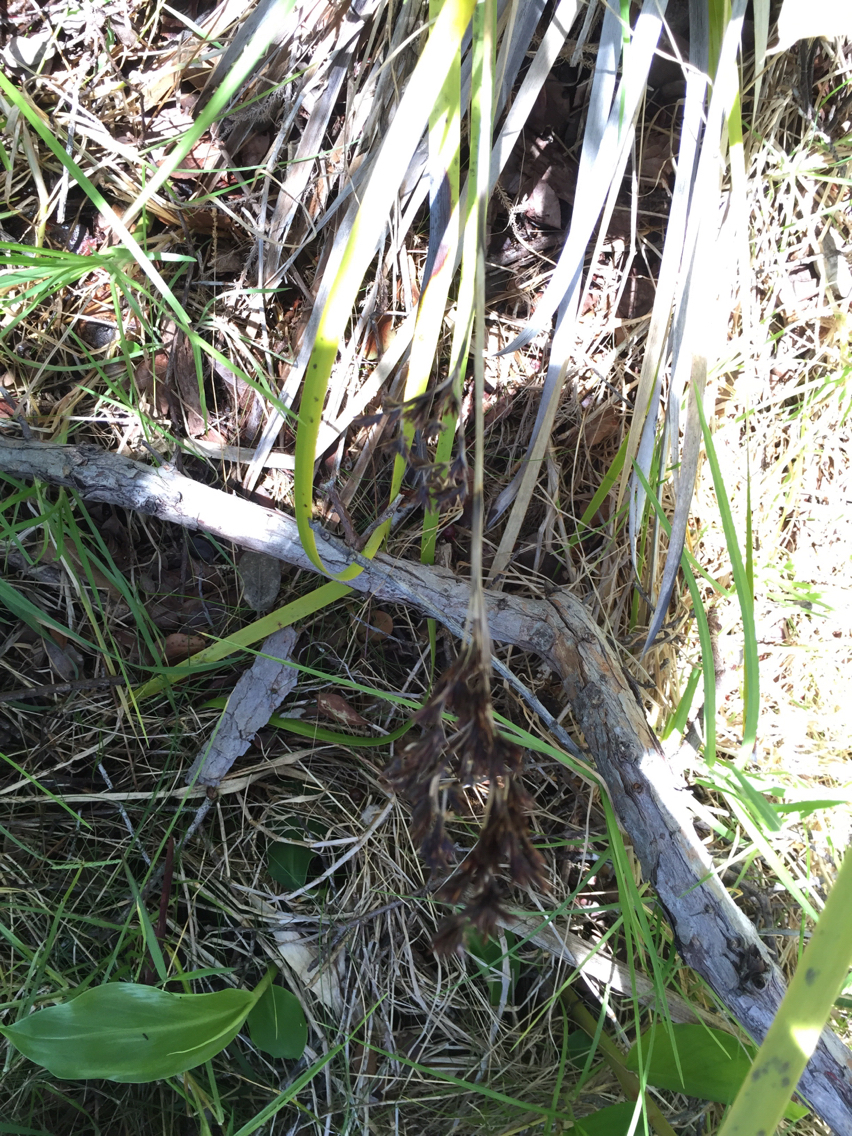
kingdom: Plantae
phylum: Tracheophyta
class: Liliopsida
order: Poales
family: Cyperaceae
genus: Machaerina
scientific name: Machaerina angustifolia
